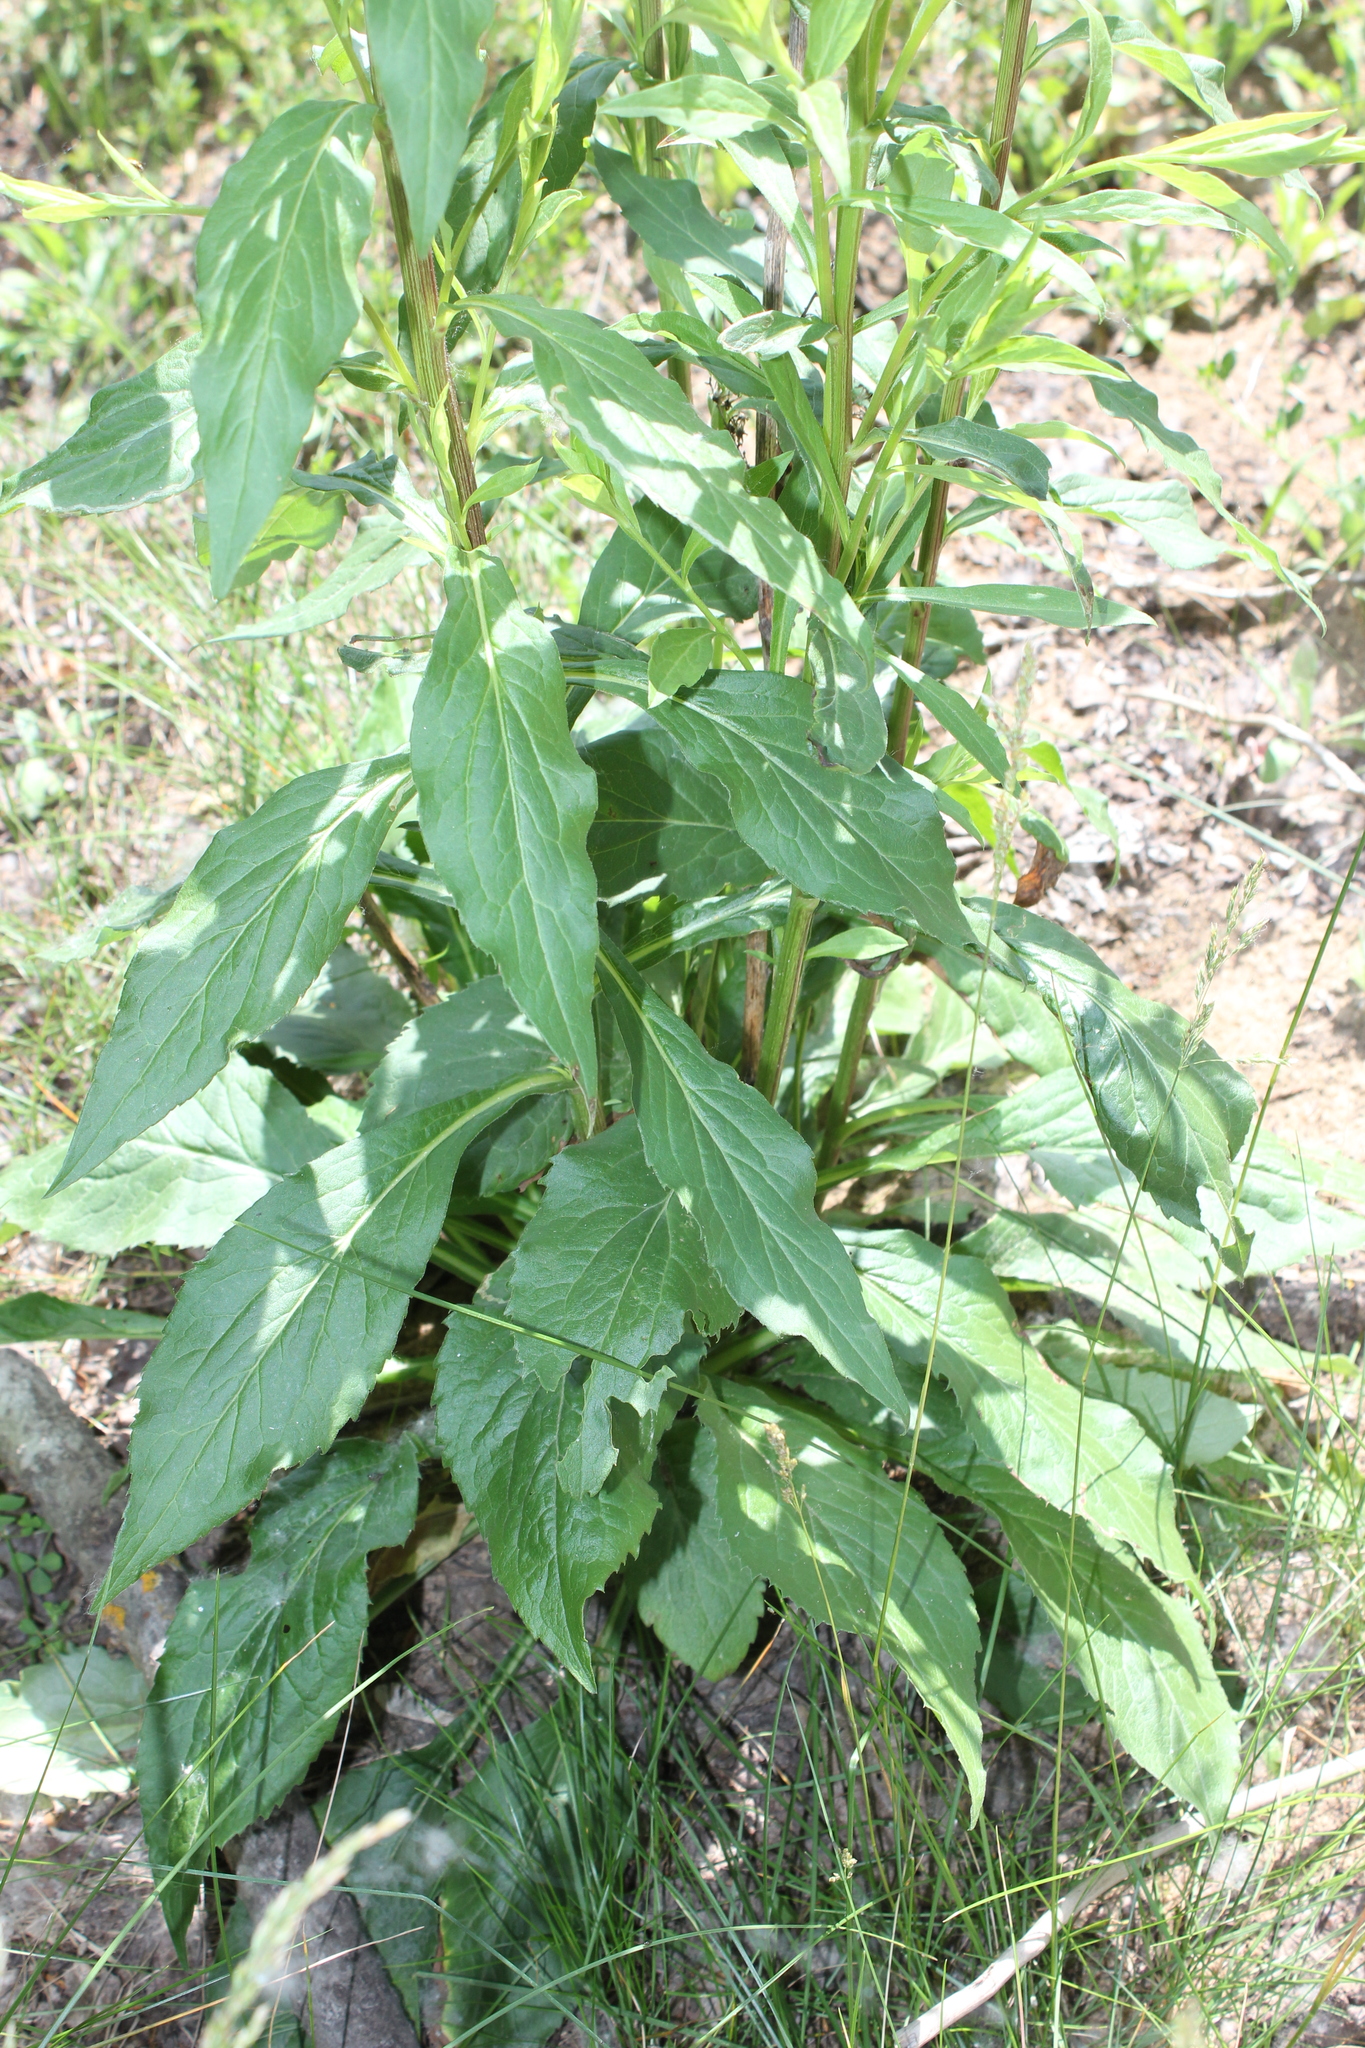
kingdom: Plantae
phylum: Tracheophyta
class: Magnoliopsida
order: Asterales
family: Asteraceae
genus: Solidago
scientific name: Solidago virgaurea
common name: Goldenrod
